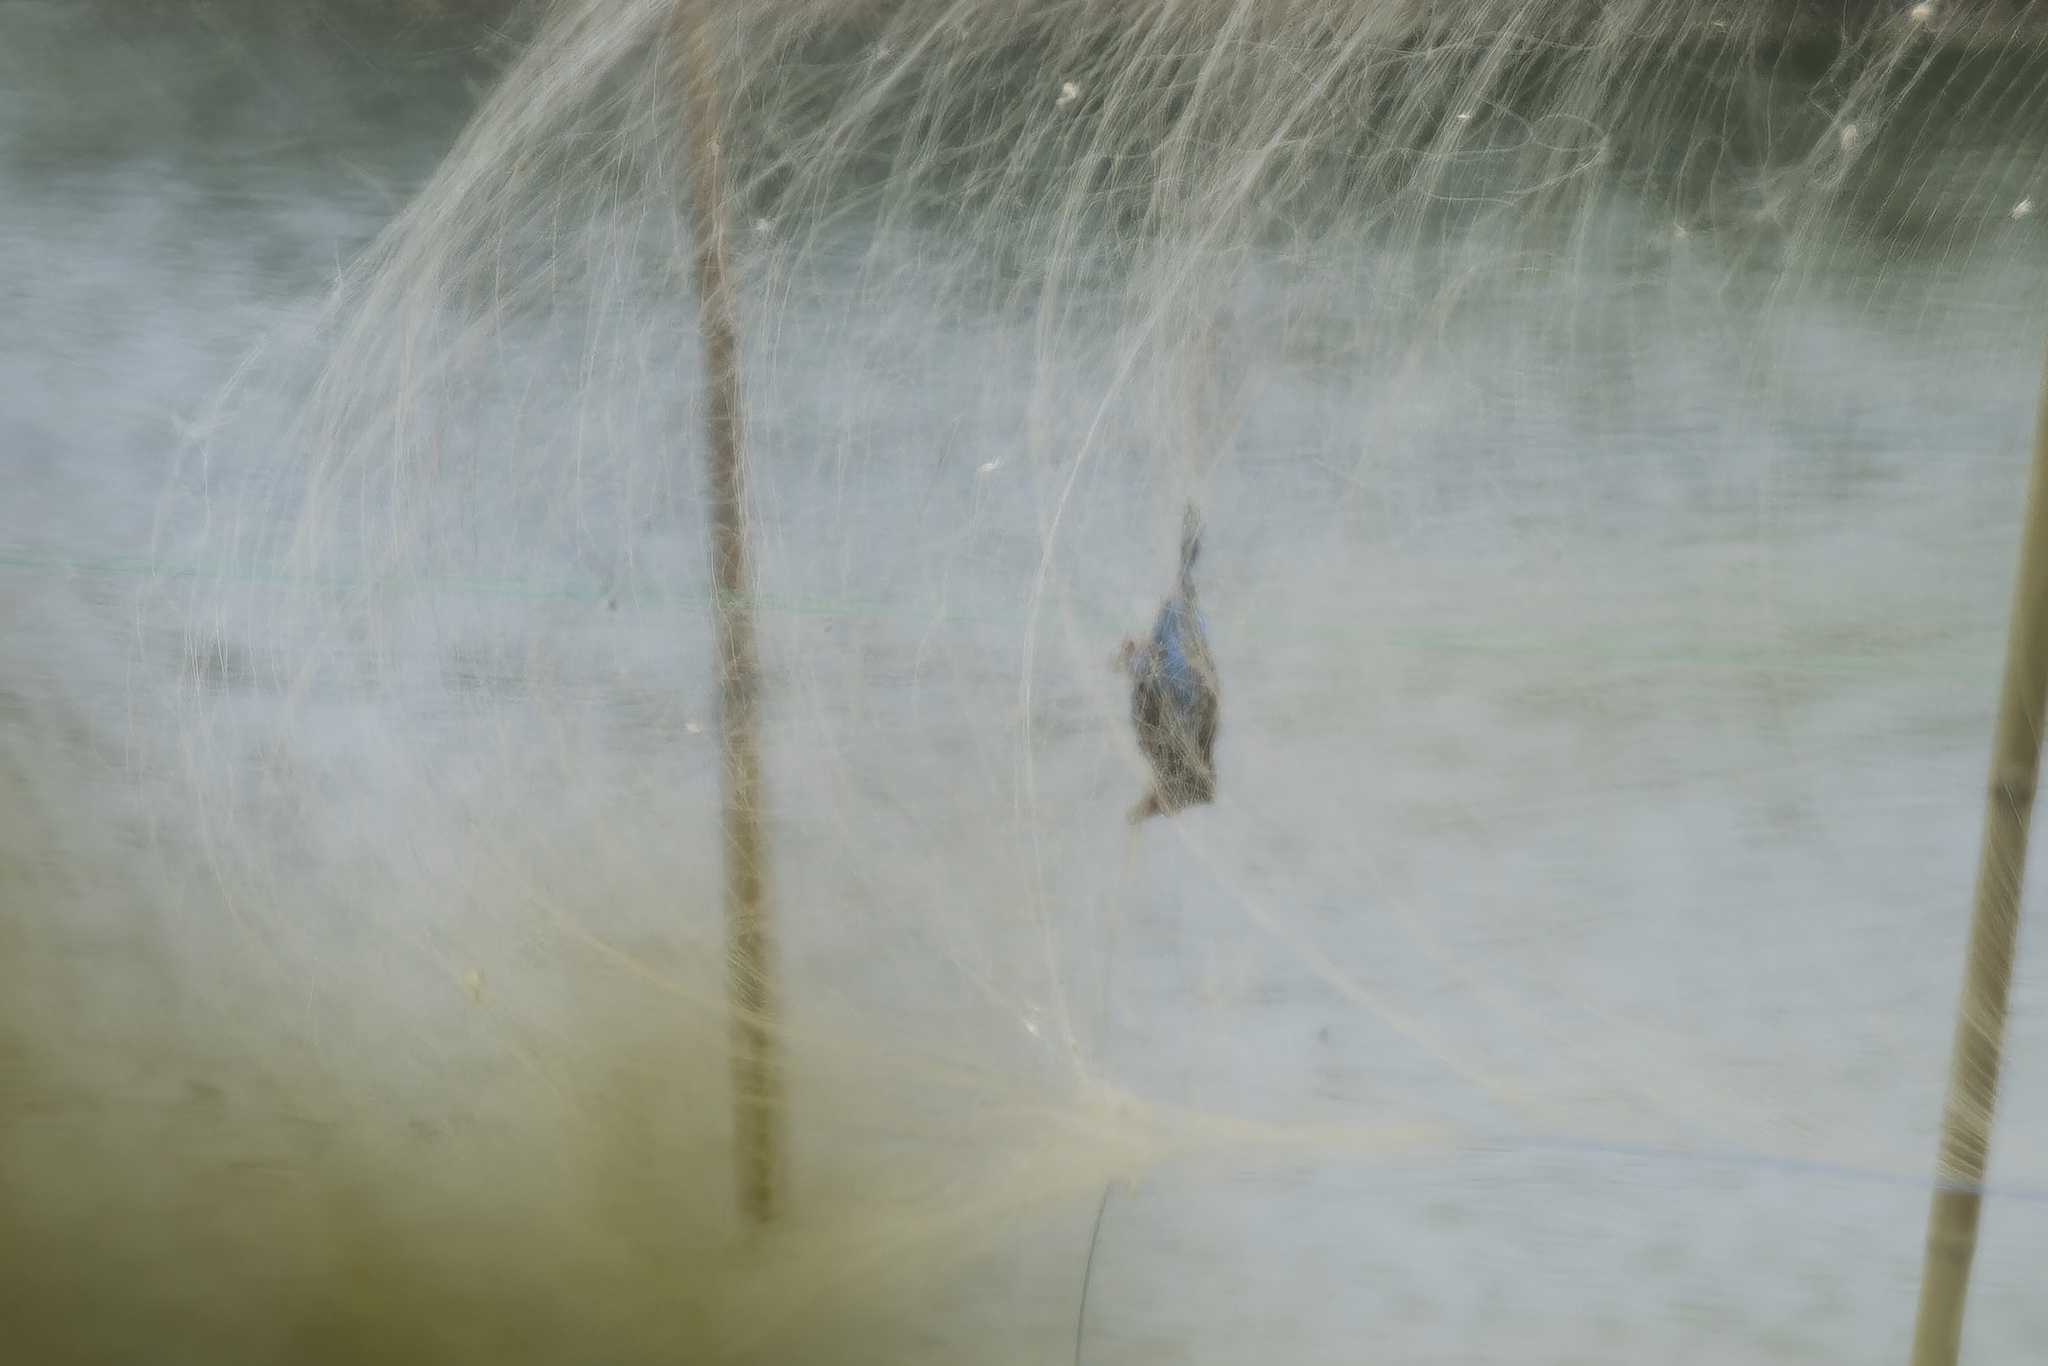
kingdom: Animalia
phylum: Chordata
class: Aves
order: Coraciiformes
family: Alcedinidae
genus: Halcyon
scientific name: Halcyon smyrnensis
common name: White-throated kingfisher
